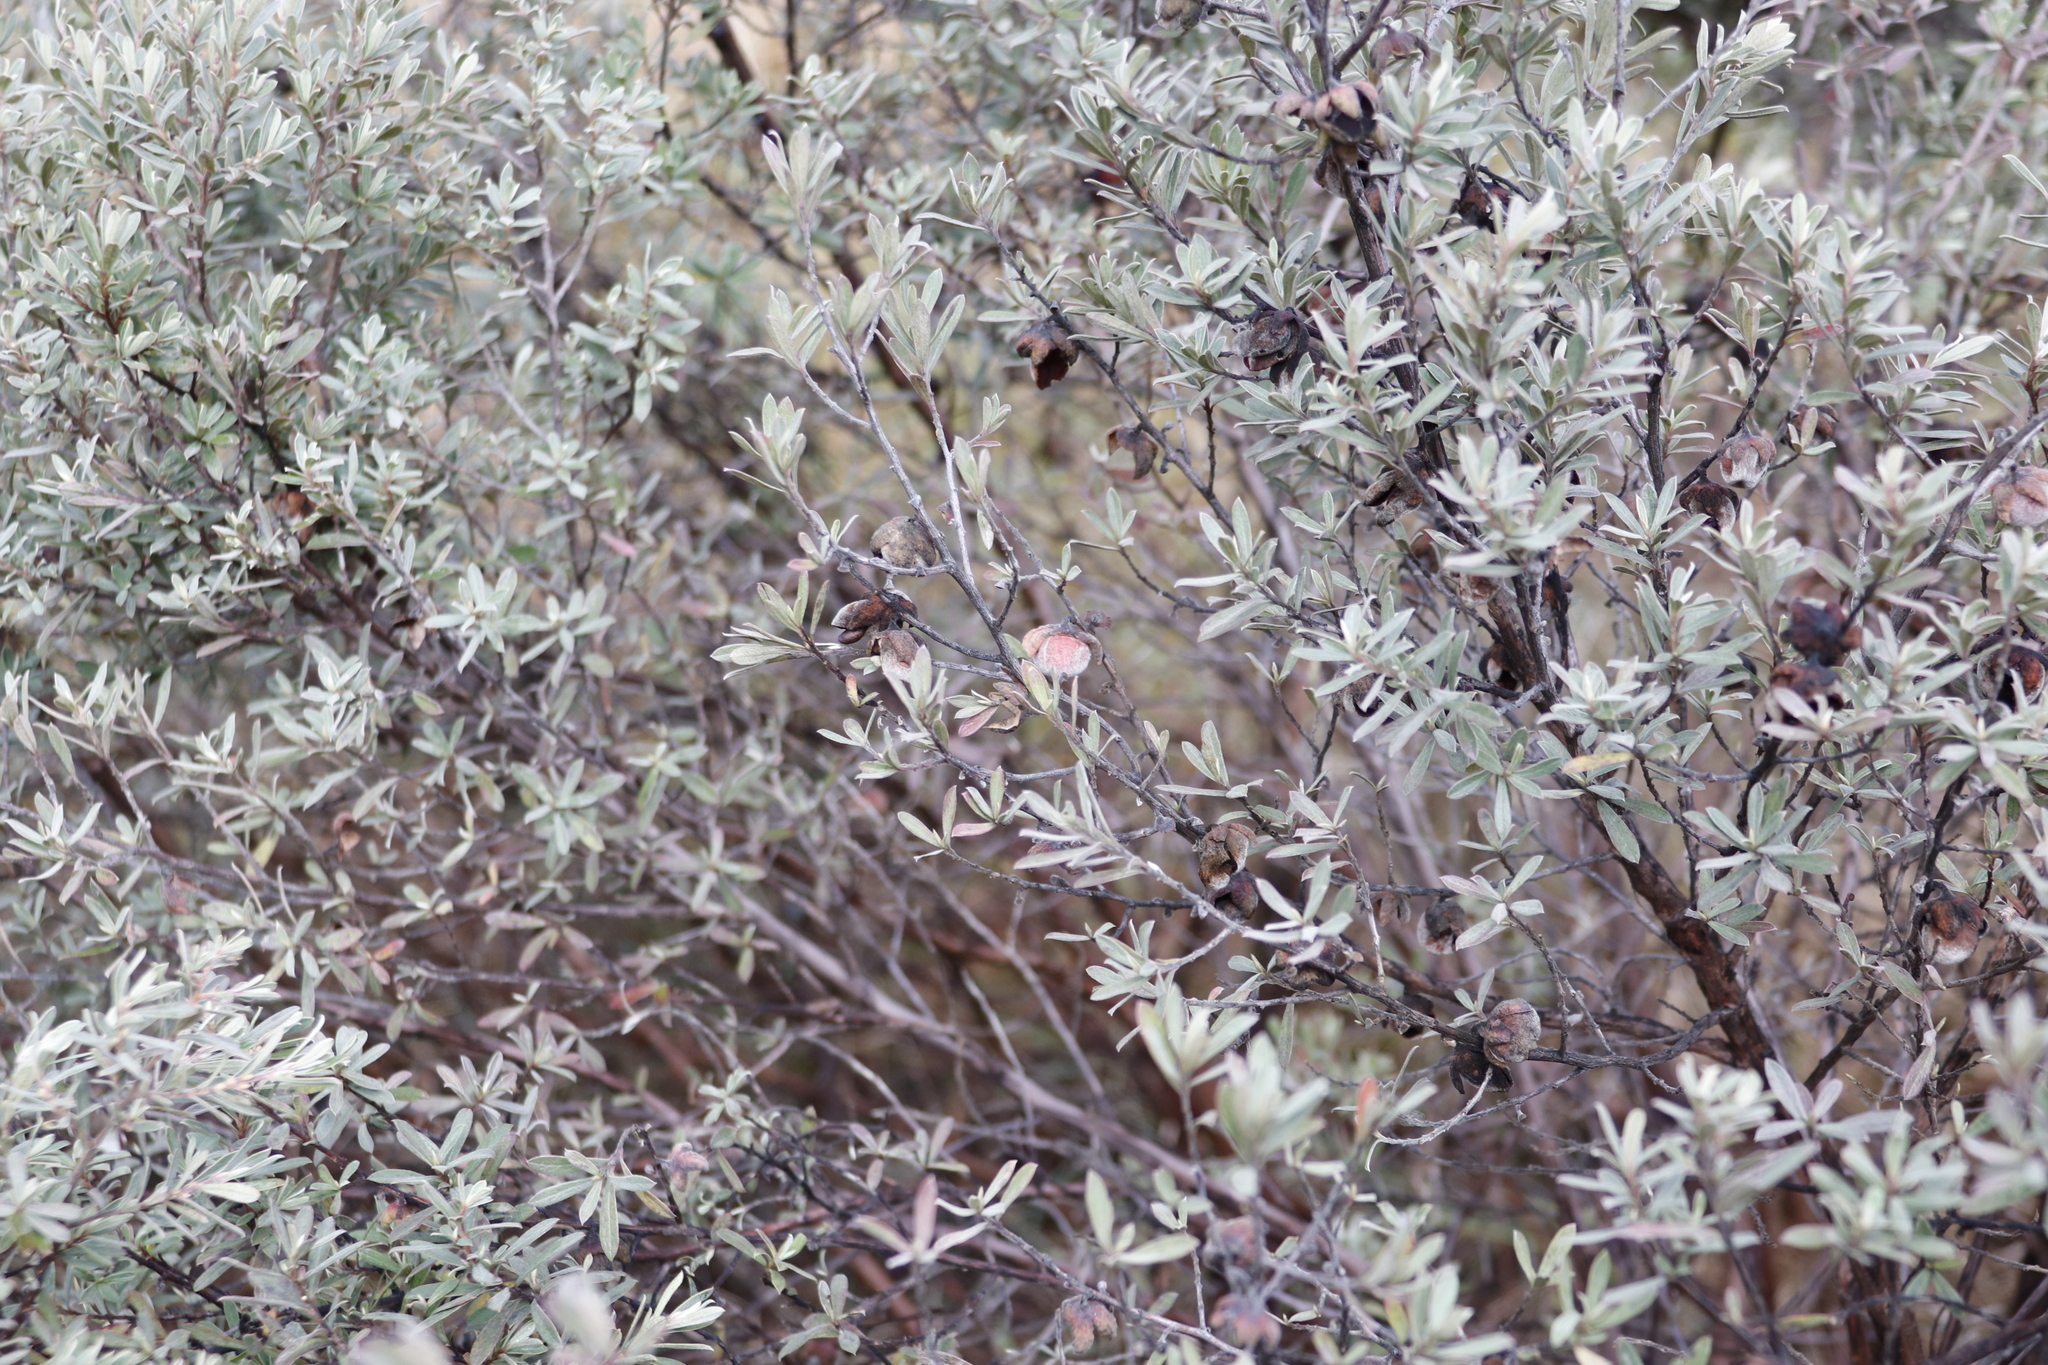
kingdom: Plantae
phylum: Tracheophyta
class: Magnoliopsida
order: Ericales
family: Ebenaceae
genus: Diospyros
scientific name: Diospyros pubescens
